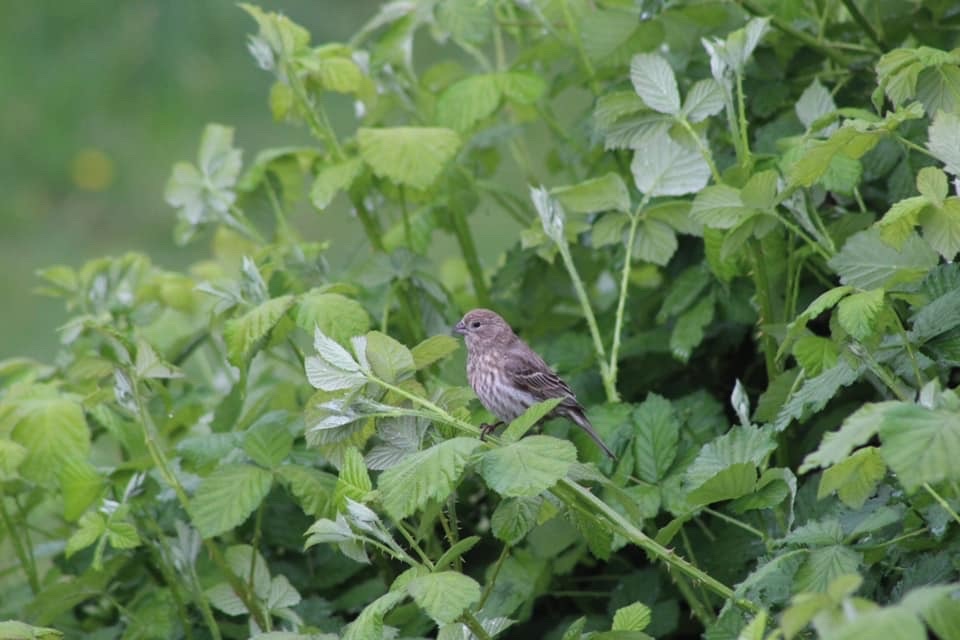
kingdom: Animalia
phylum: Chordata
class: Aves
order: Passeriformes
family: Fringillidae
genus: Haemorhous
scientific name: Haemorhous mexicanus
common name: House finch
